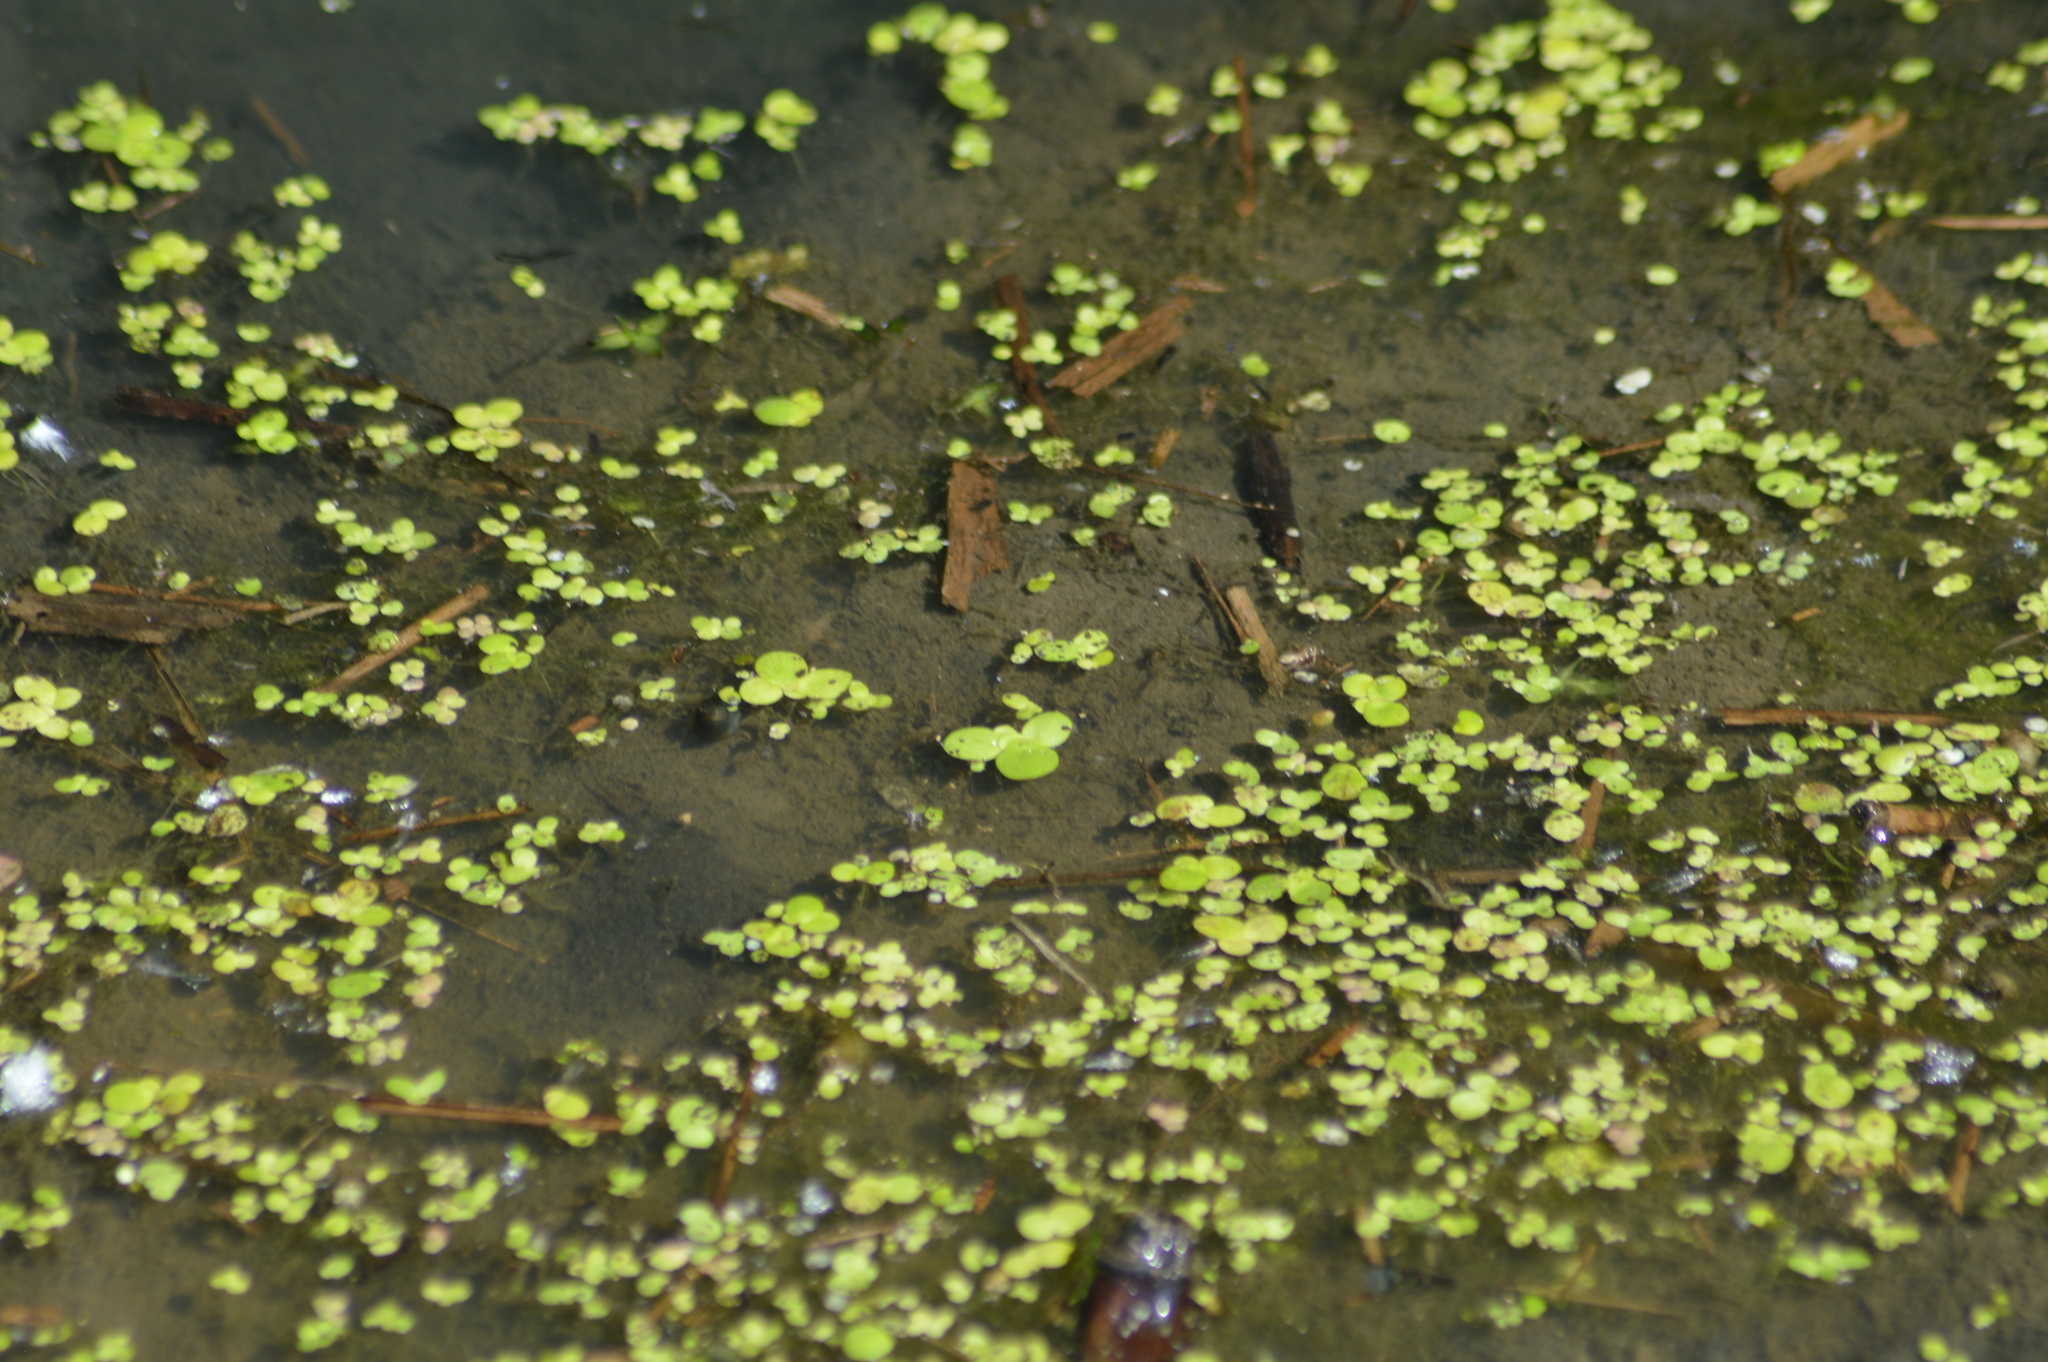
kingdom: Plantae
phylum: Tracheophyta
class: Liliopsida
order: Alismatales
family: Araceae
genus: Lemna
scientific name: Lemna minor
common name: Common duckweed
